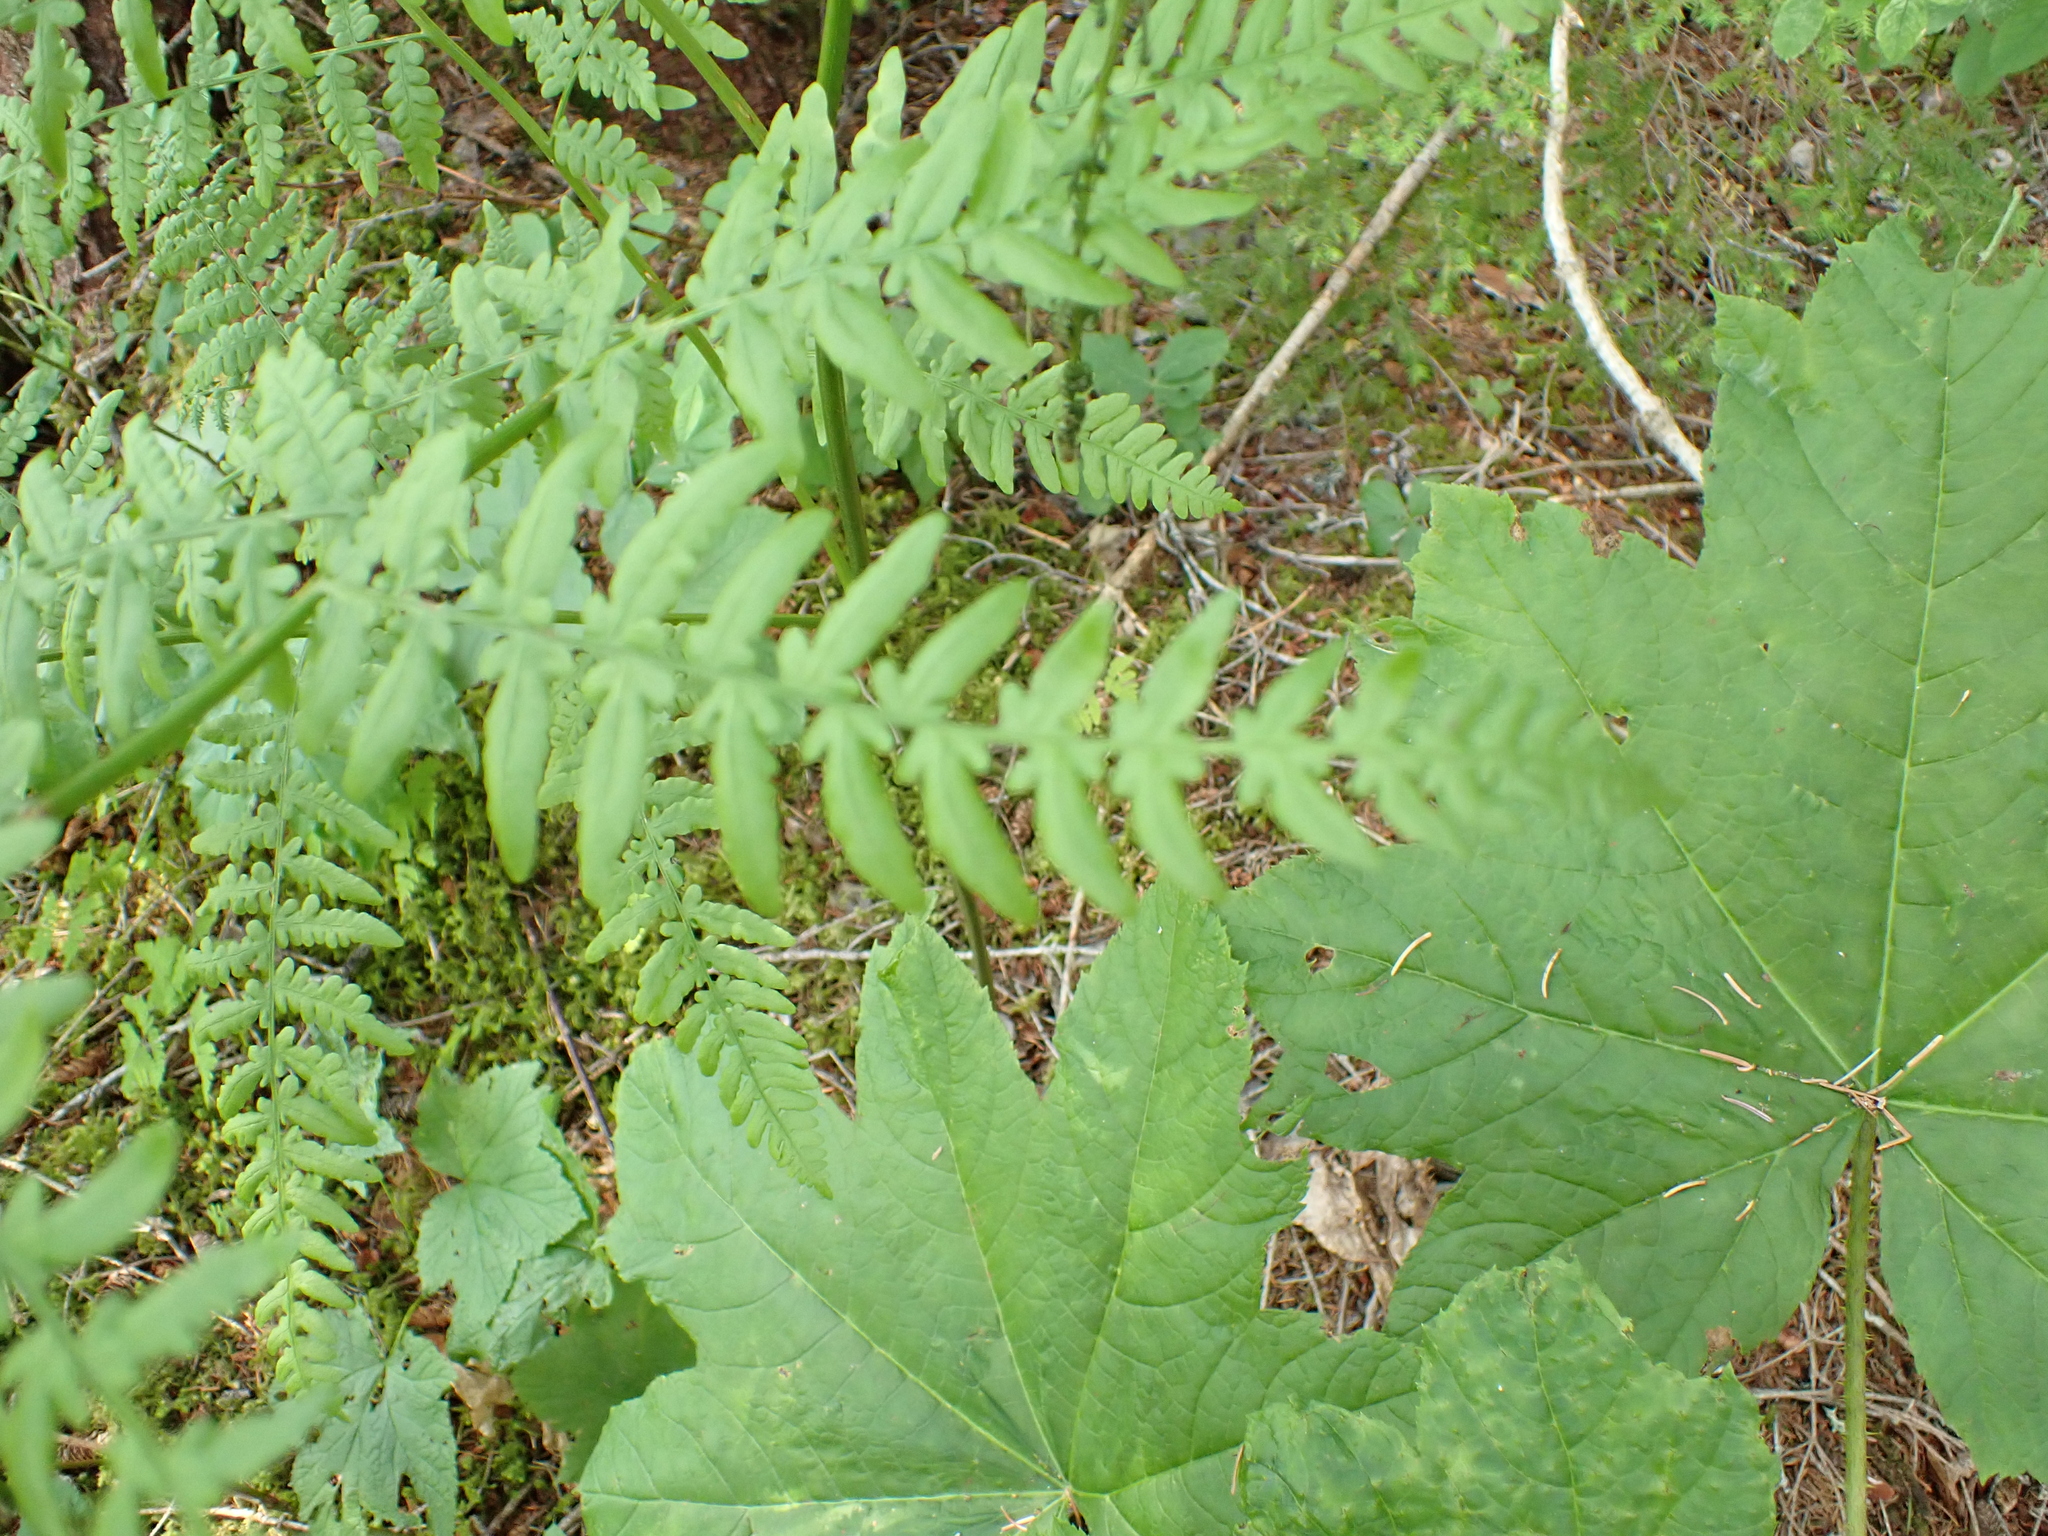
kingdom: Plantae
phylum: Tracheophyta
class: Magnoliopsida
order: Apiales
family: Araliaceae
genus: Oplopanax
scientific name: Oplopanax horridus
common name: Devil's walking-stick
